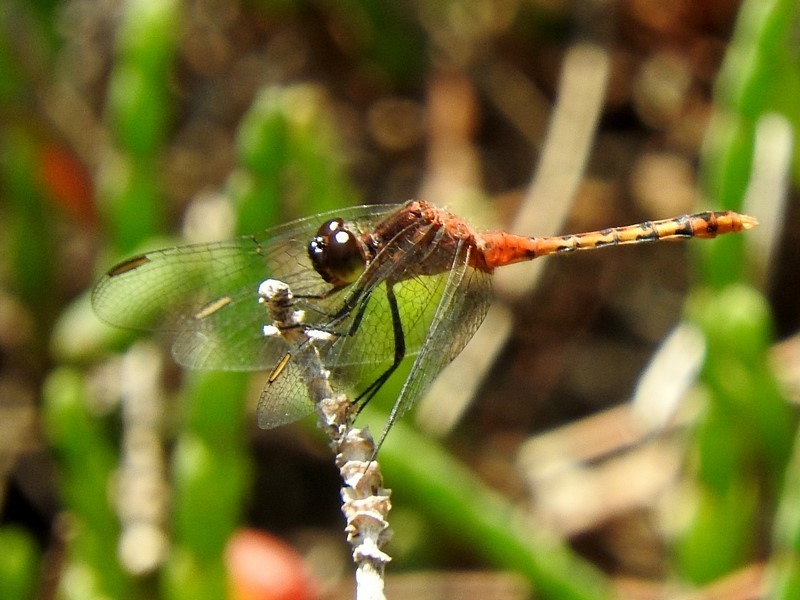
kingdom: Animalia
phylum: Arthropoda
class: Insecta
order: Odonata
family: Libellulidae
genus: Diplacodes
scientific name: Diplacodes melanopsis
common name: Black-faced percher
